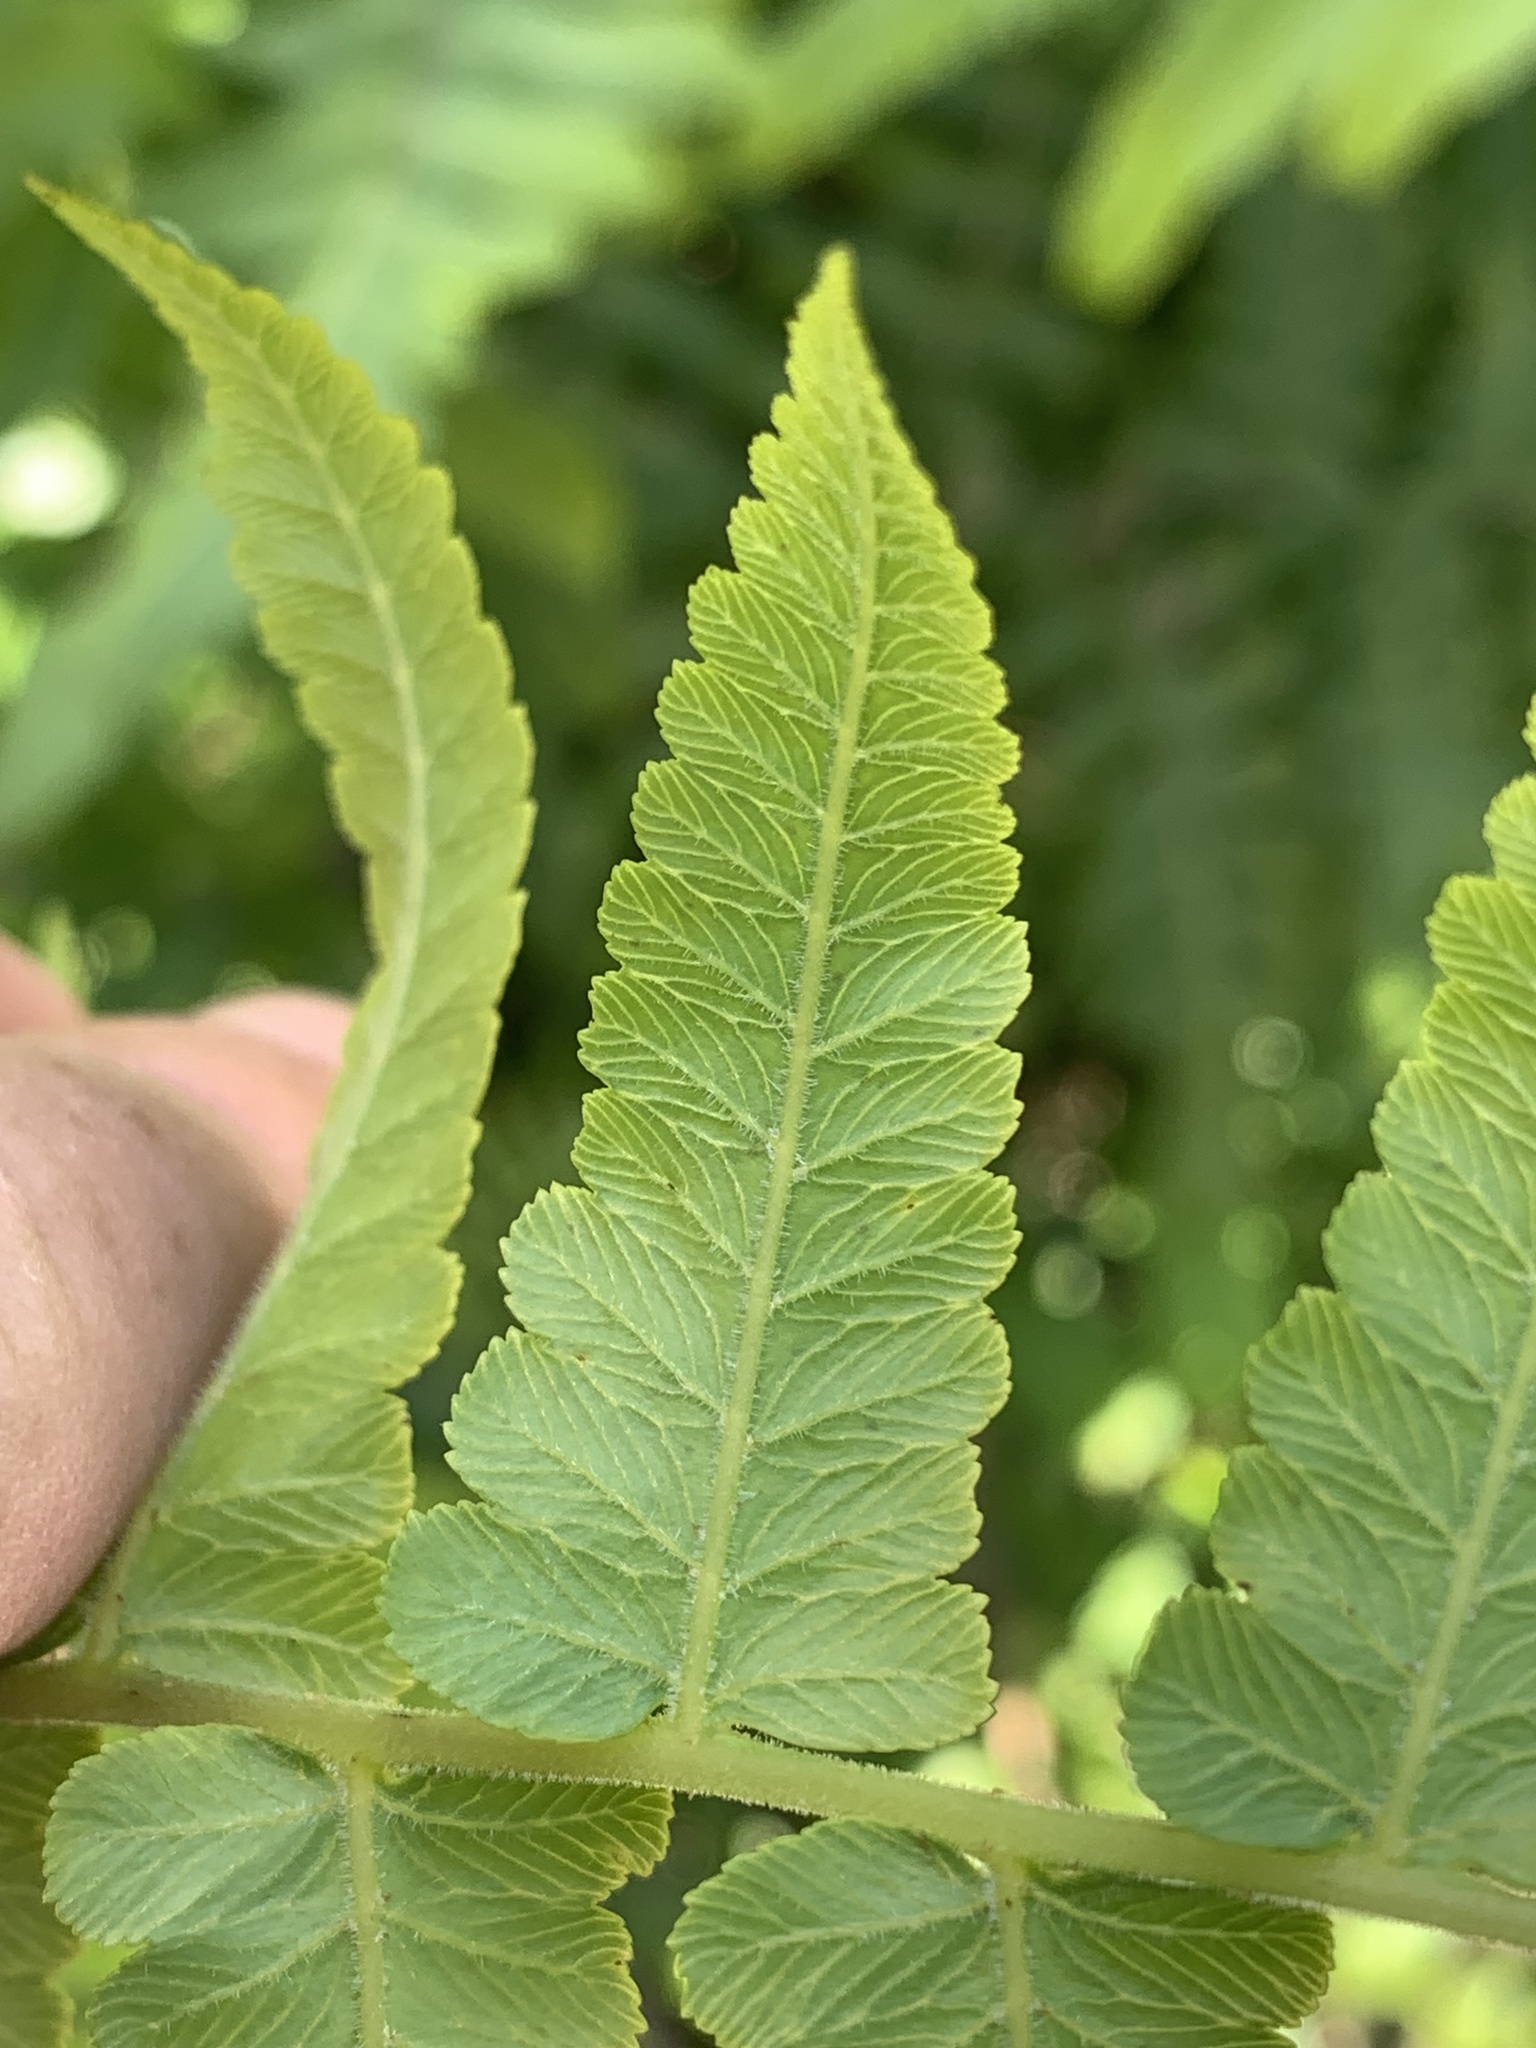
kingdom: Plantae
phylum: Tracheophyta
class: Polypodiopsida
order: Polypodiales
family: Athyriaceae
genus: Diplazium
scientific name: Diplazium esculentum
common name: Vegetable fern
